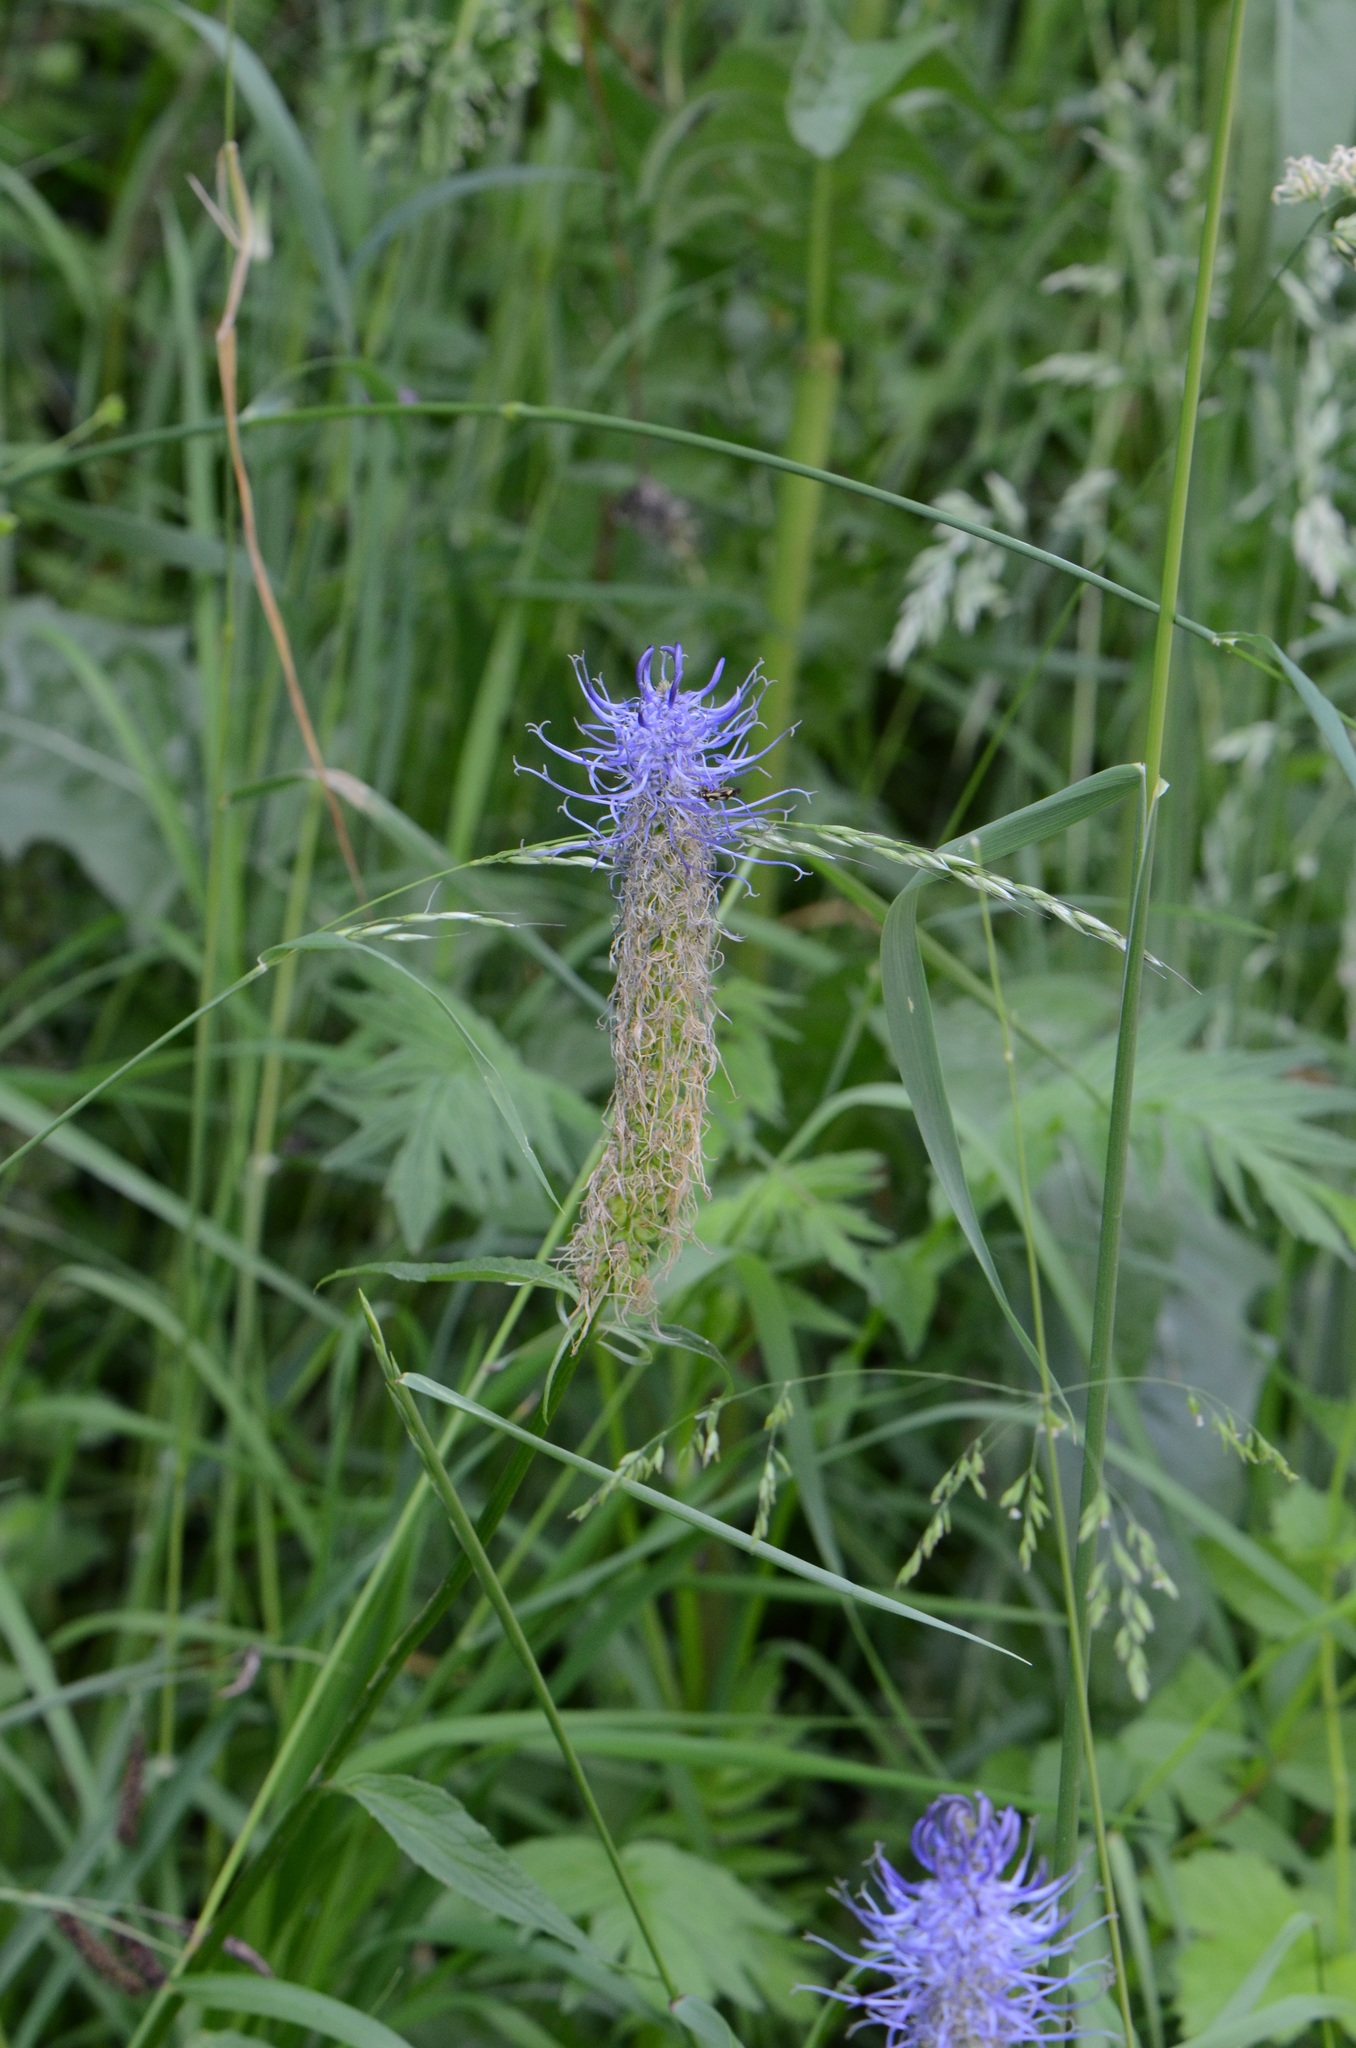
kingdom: Plantae
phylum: Tracheophyta
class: Magnoliopsida
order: Asterales
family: Campanulaceae
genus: Phyteuma
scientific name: Phyteuma spicatum
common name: Spiked rampion
